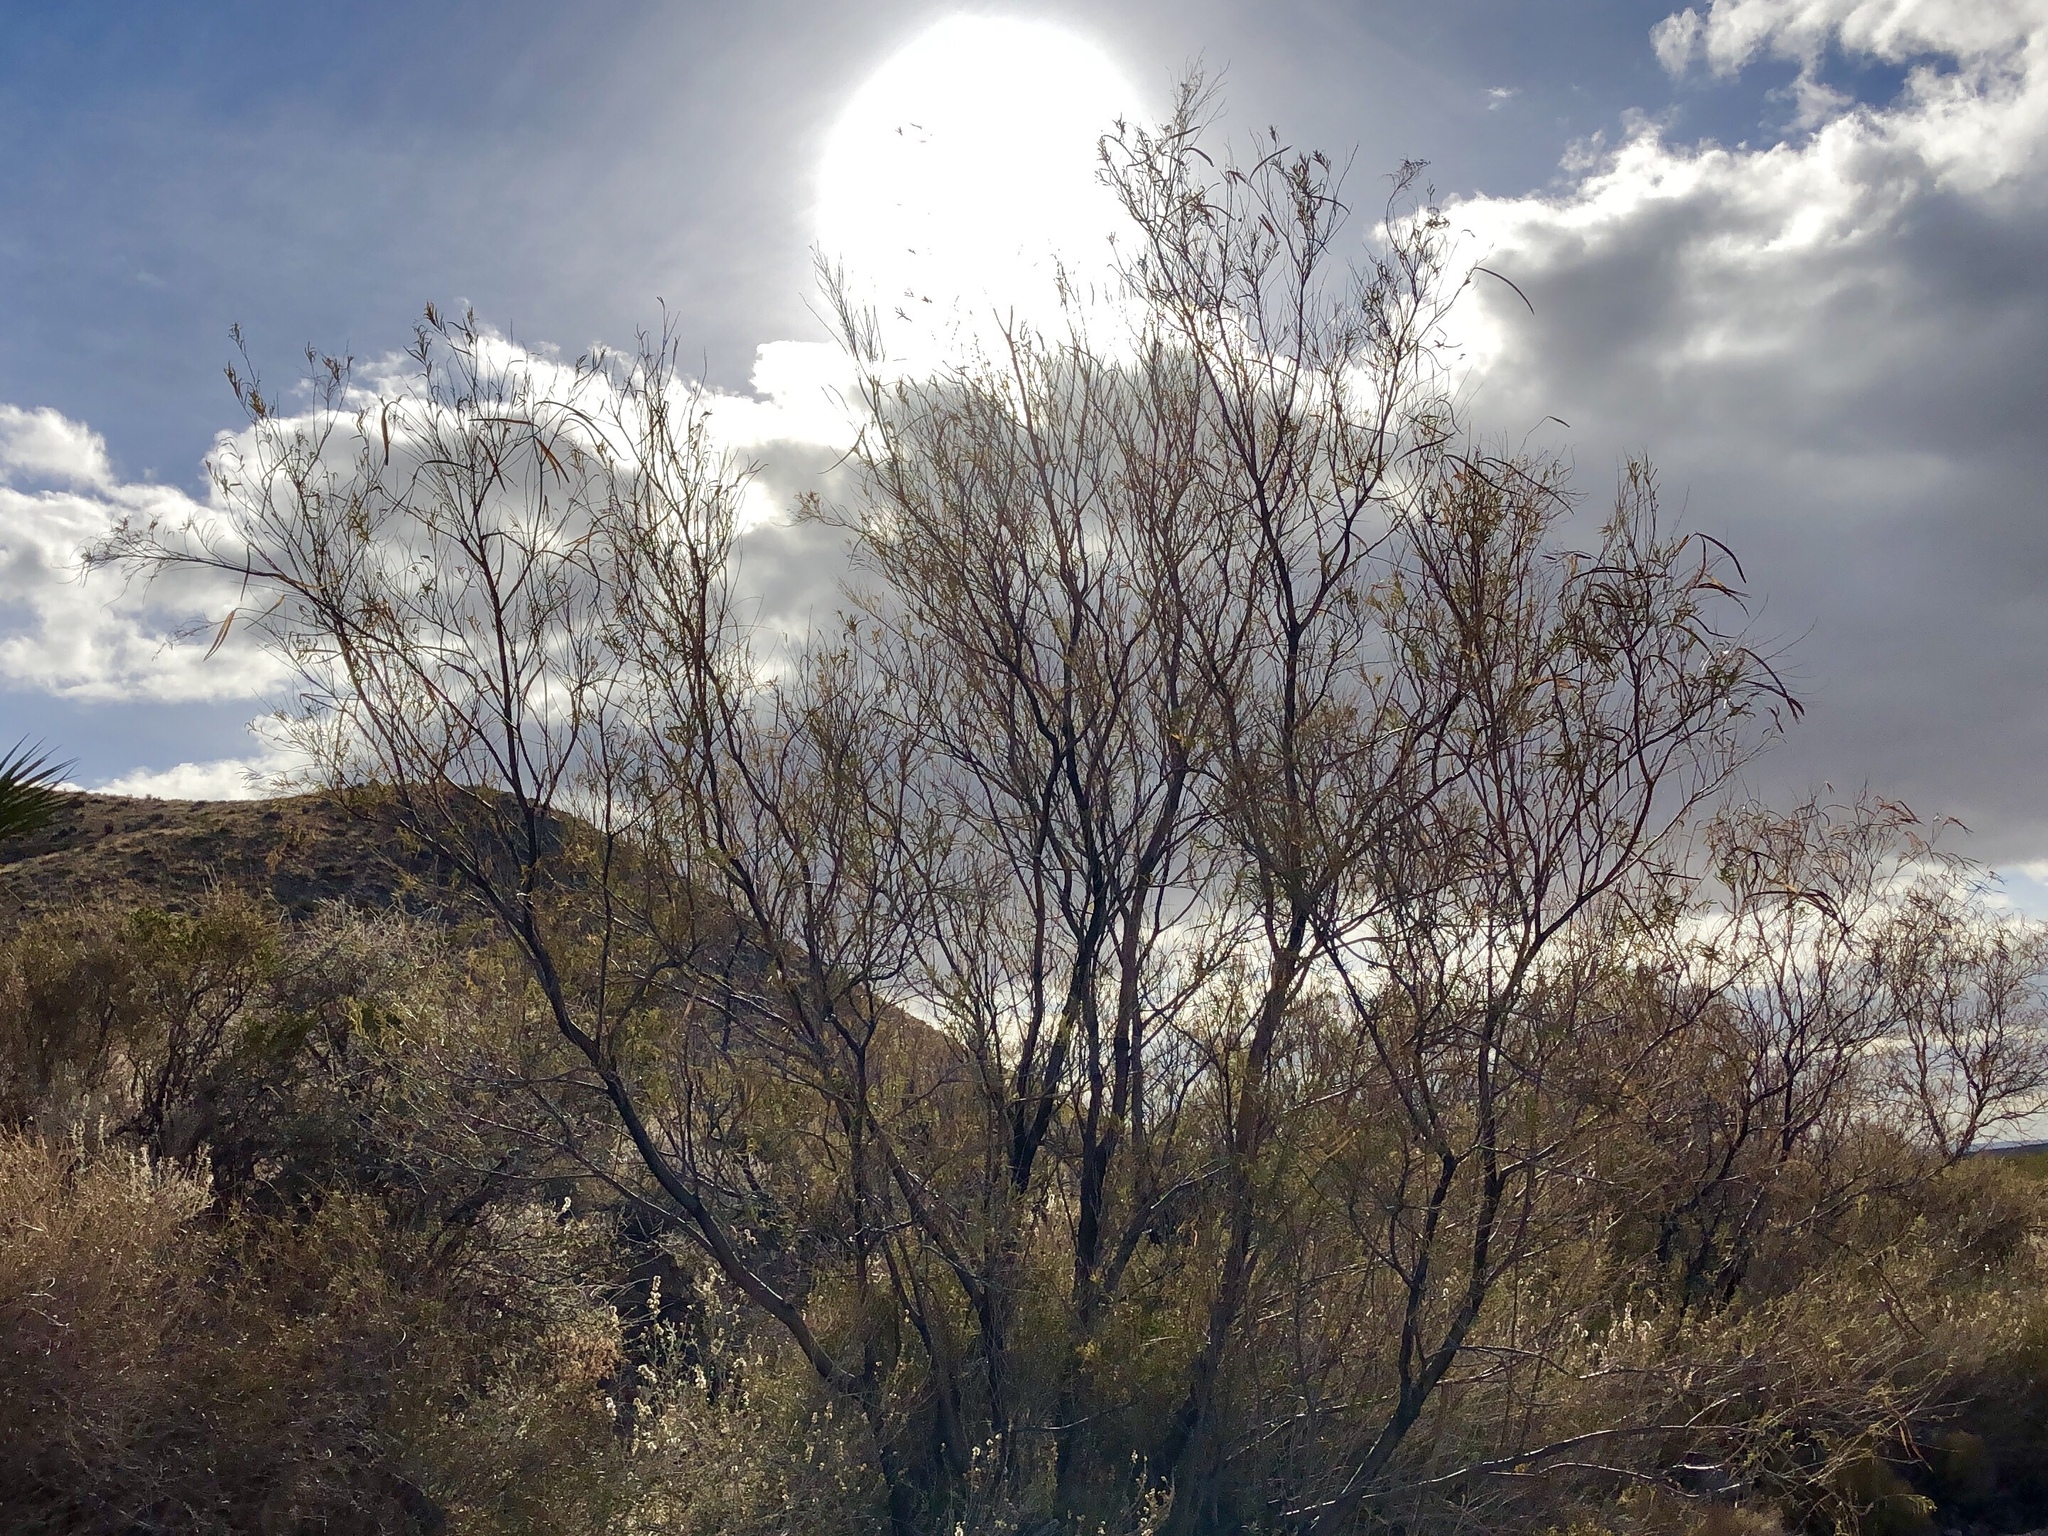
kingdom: Plantae
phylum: Tracheophyta
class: Magnoliopsida
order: Lamiales
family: Bignoniaceae
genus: Chilopsis
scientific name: Chilopsis linearis
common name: Desert-willow
